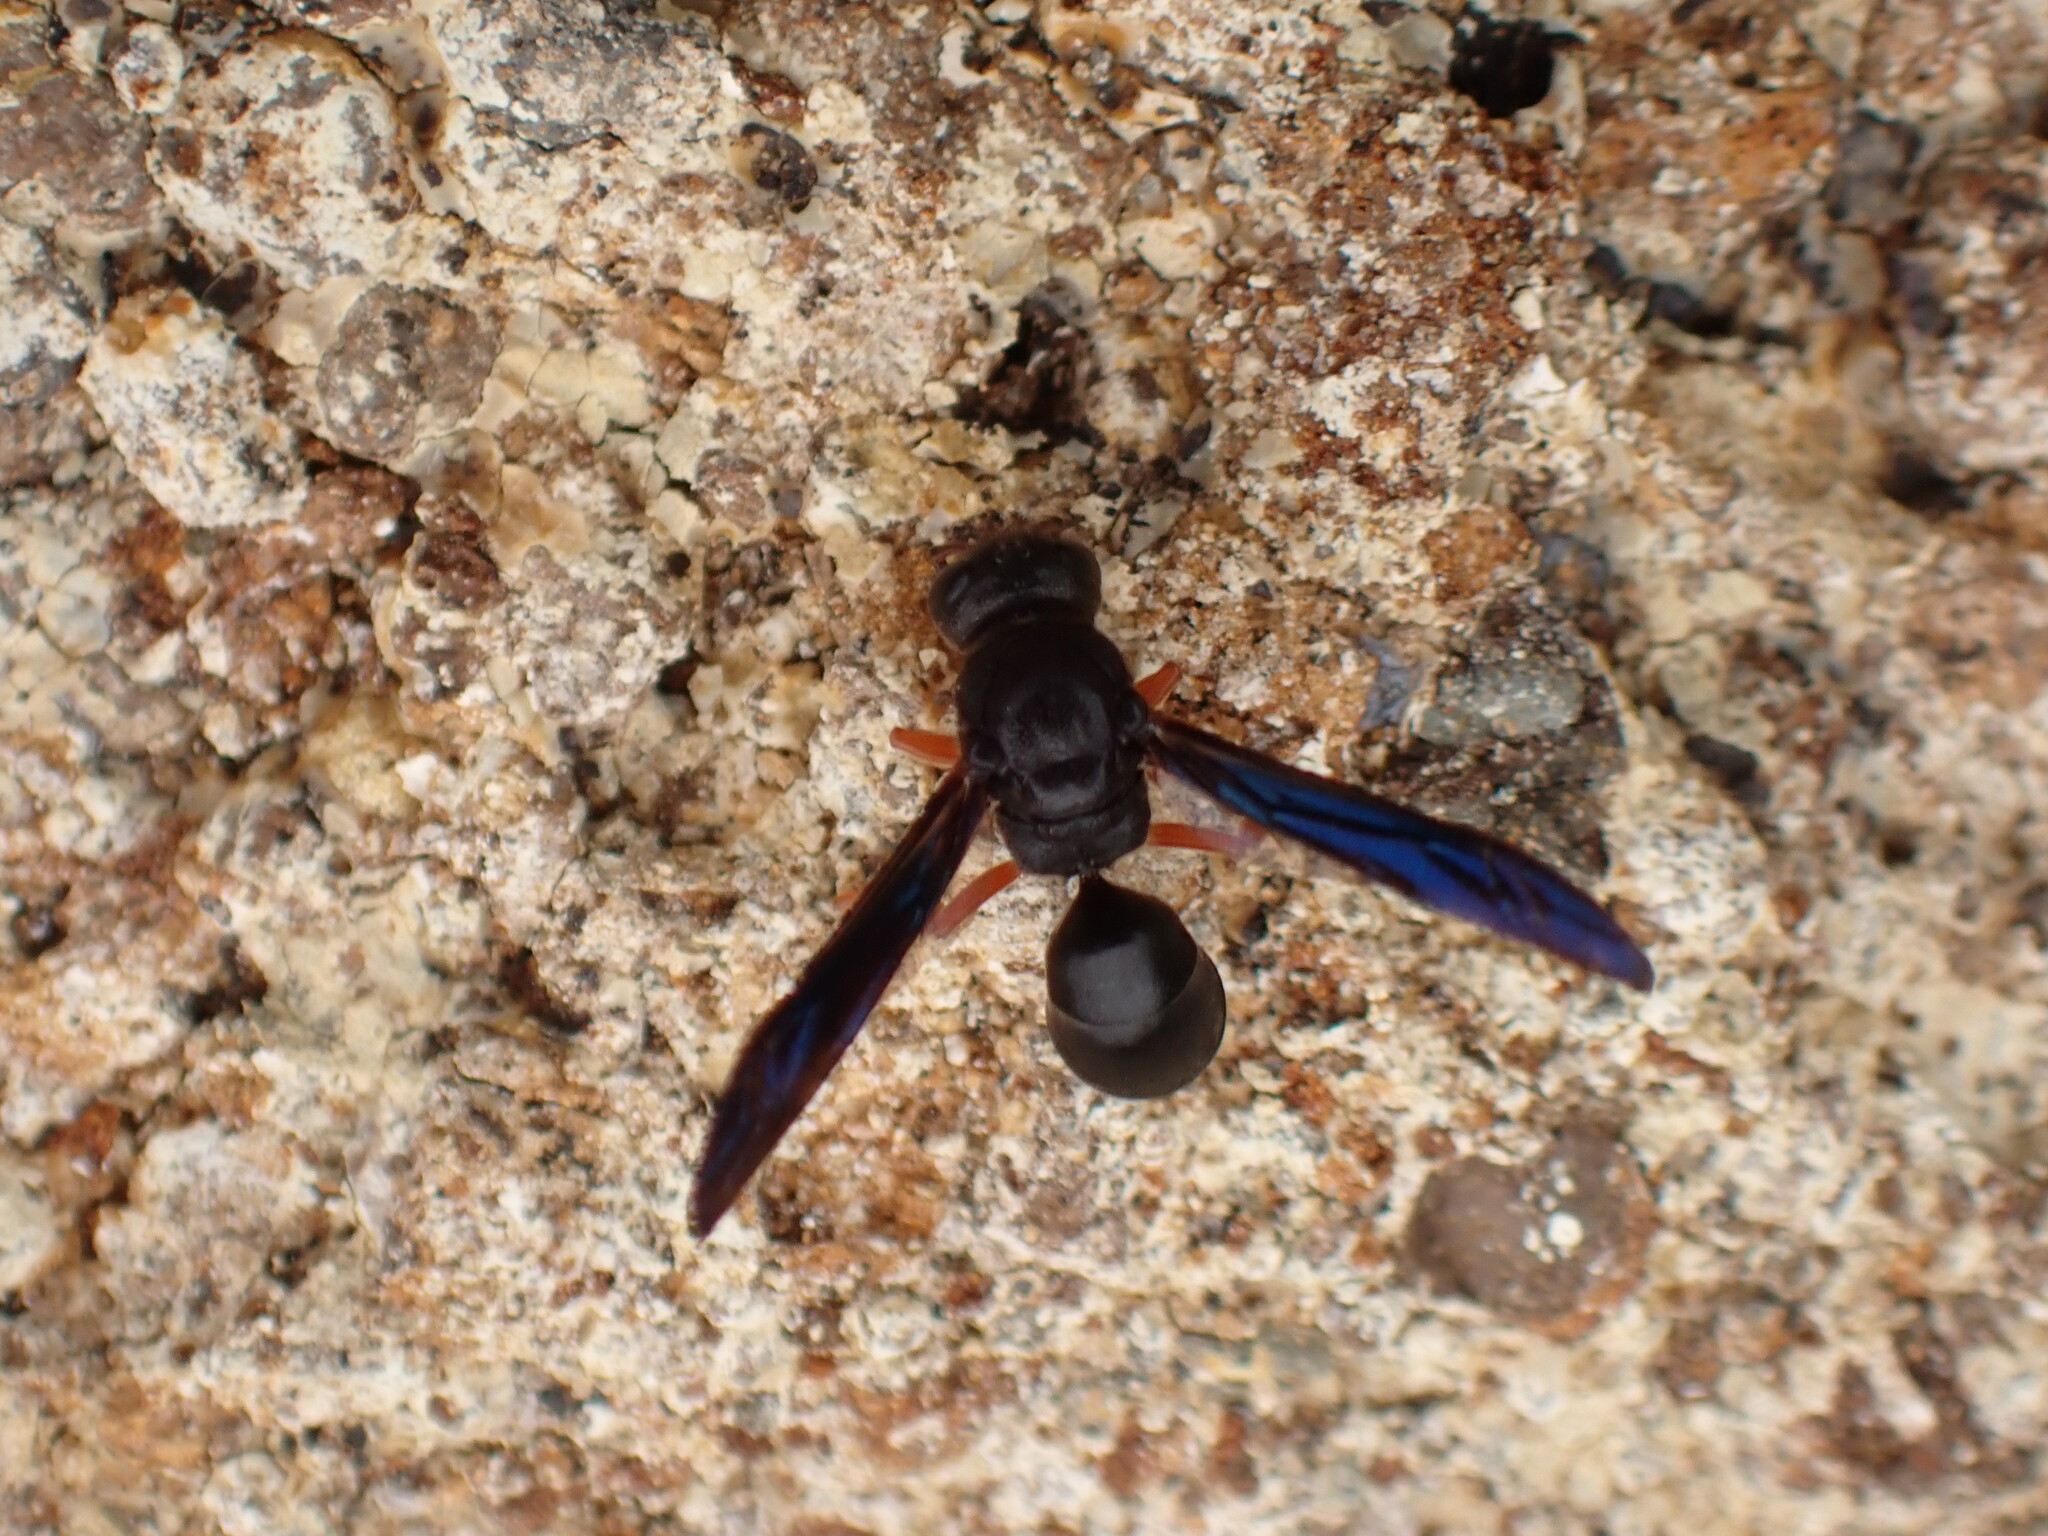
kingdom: Animalia
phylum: Arthropoda
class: Insecta
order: Hymenoptera
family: Eumenidae
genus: Anterhynchium
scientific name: Anterhynchium rufipes
